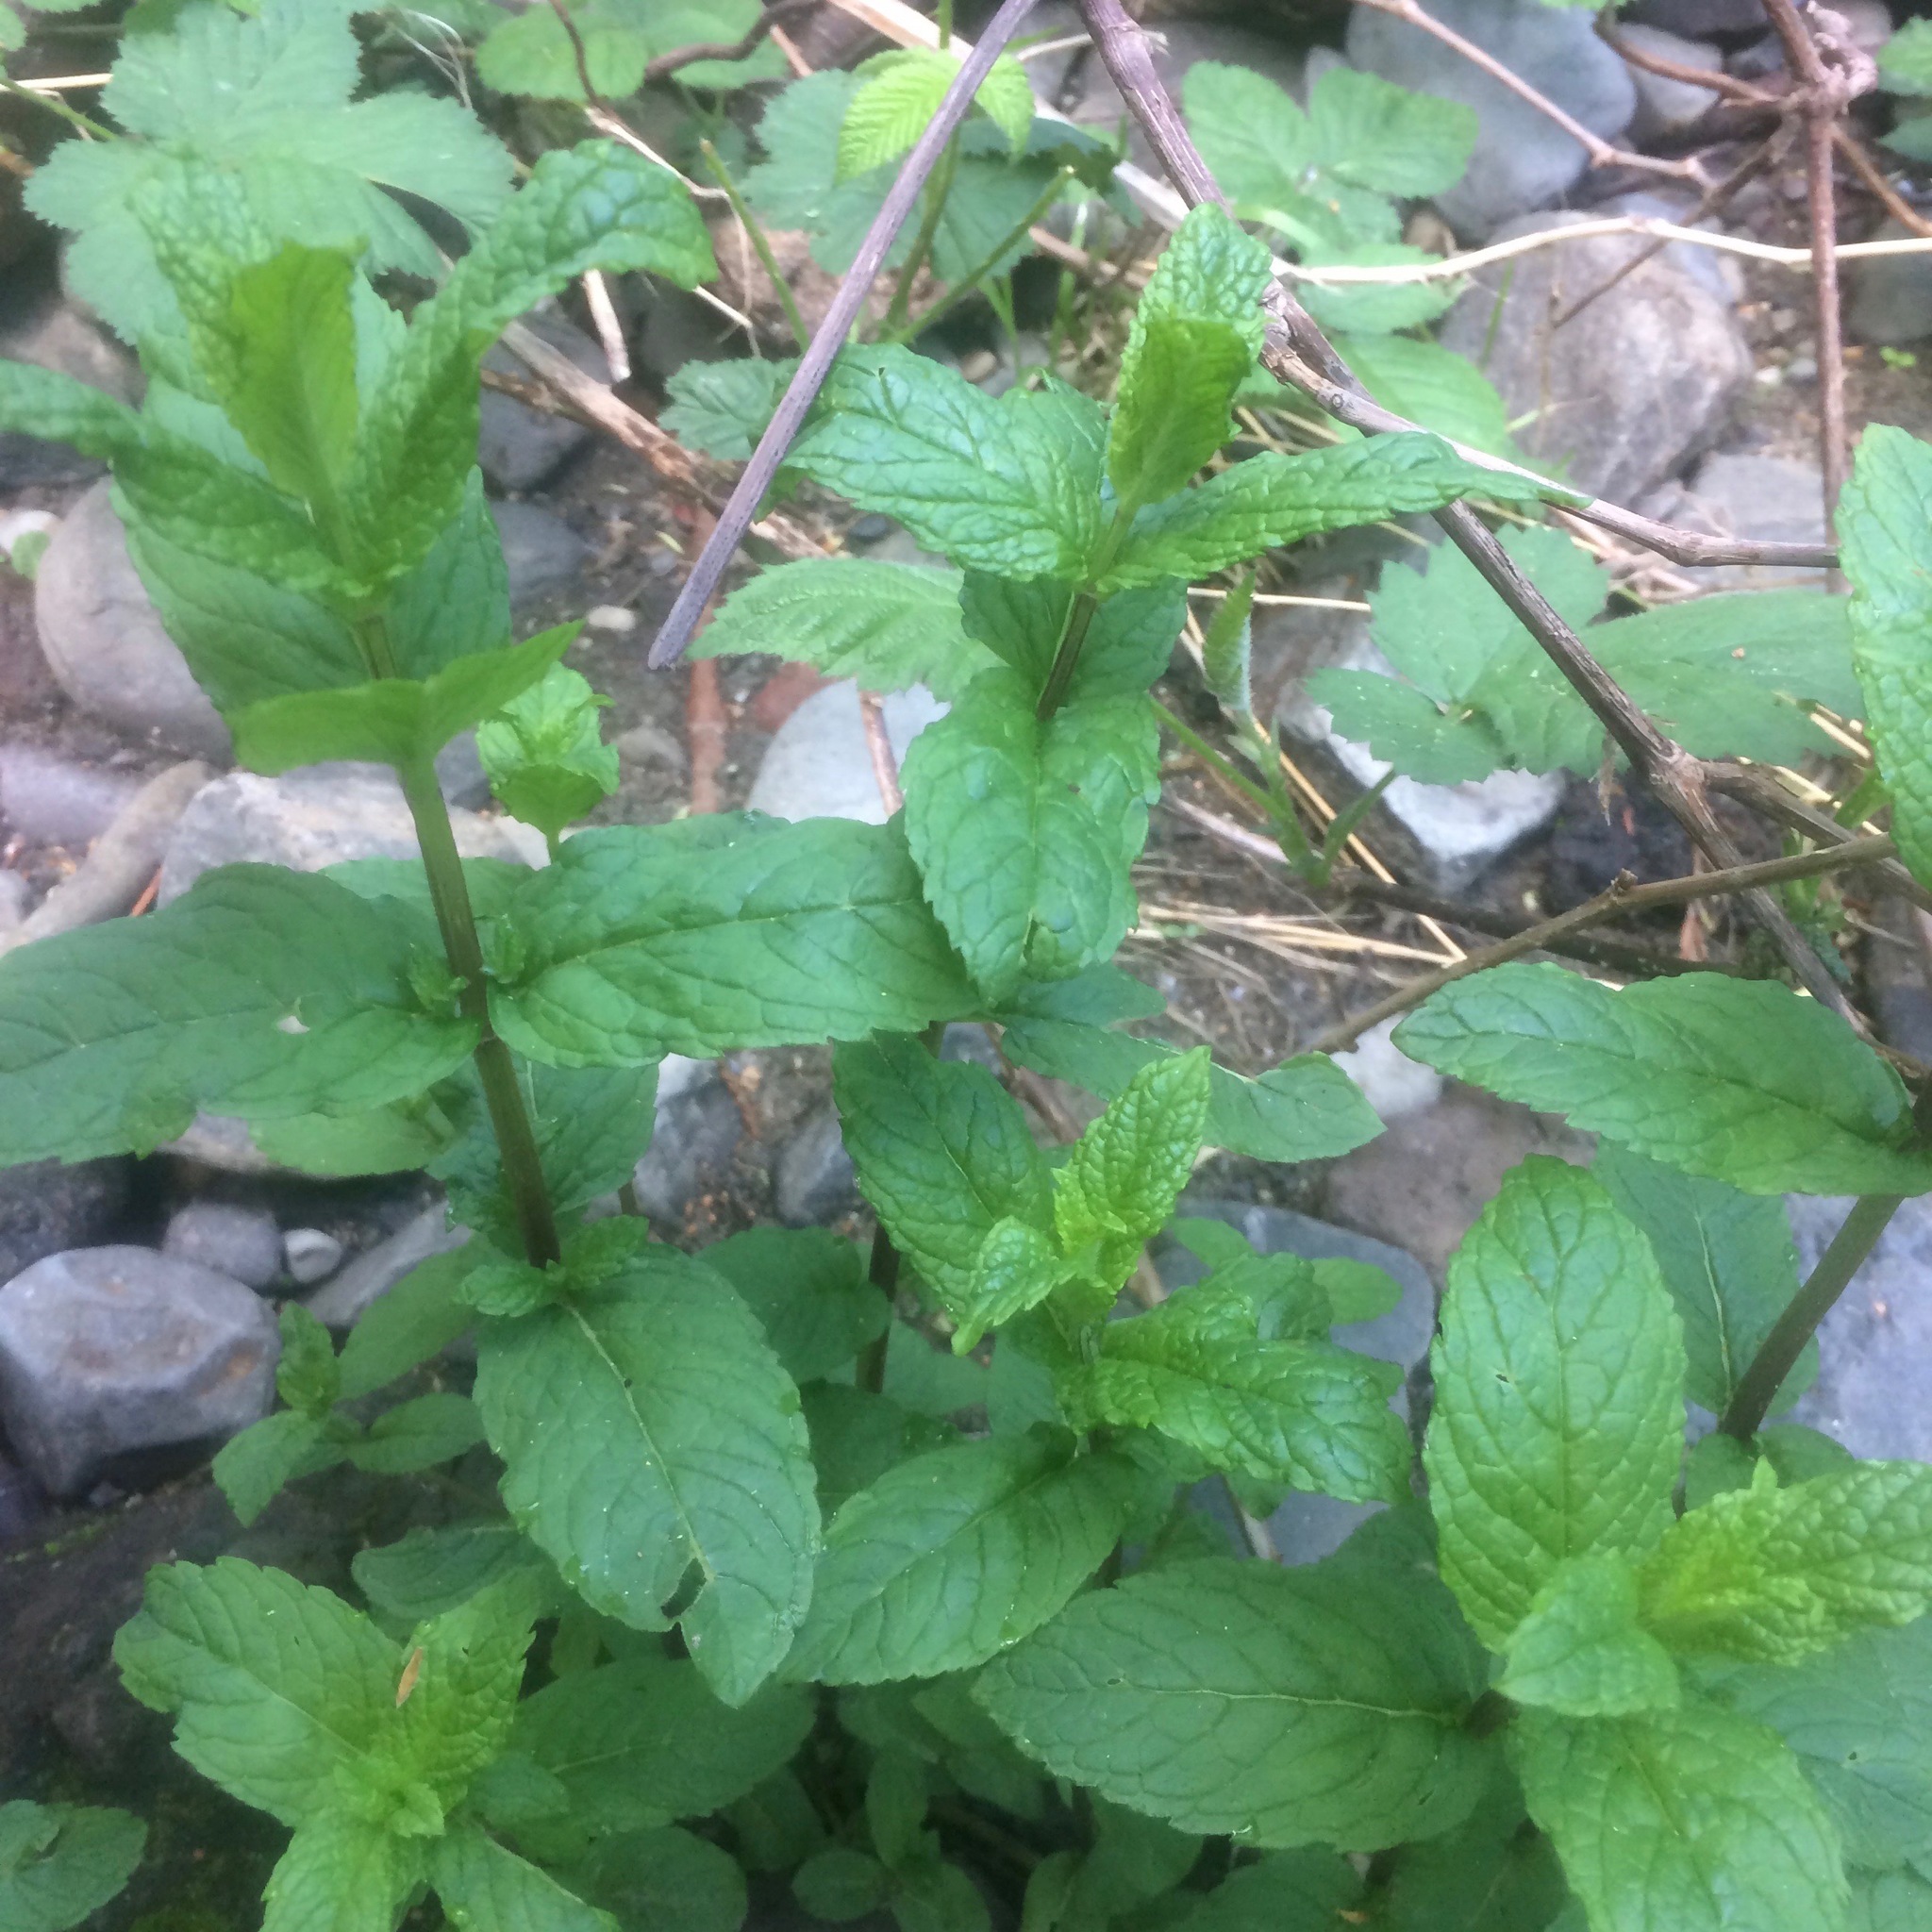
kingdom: Plantae
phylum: Tracheophyta
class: Magnoliopsida
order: Lamiales
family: Lamiaceae
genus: Mentha
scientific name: Mentha spicata
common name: Spearmint
